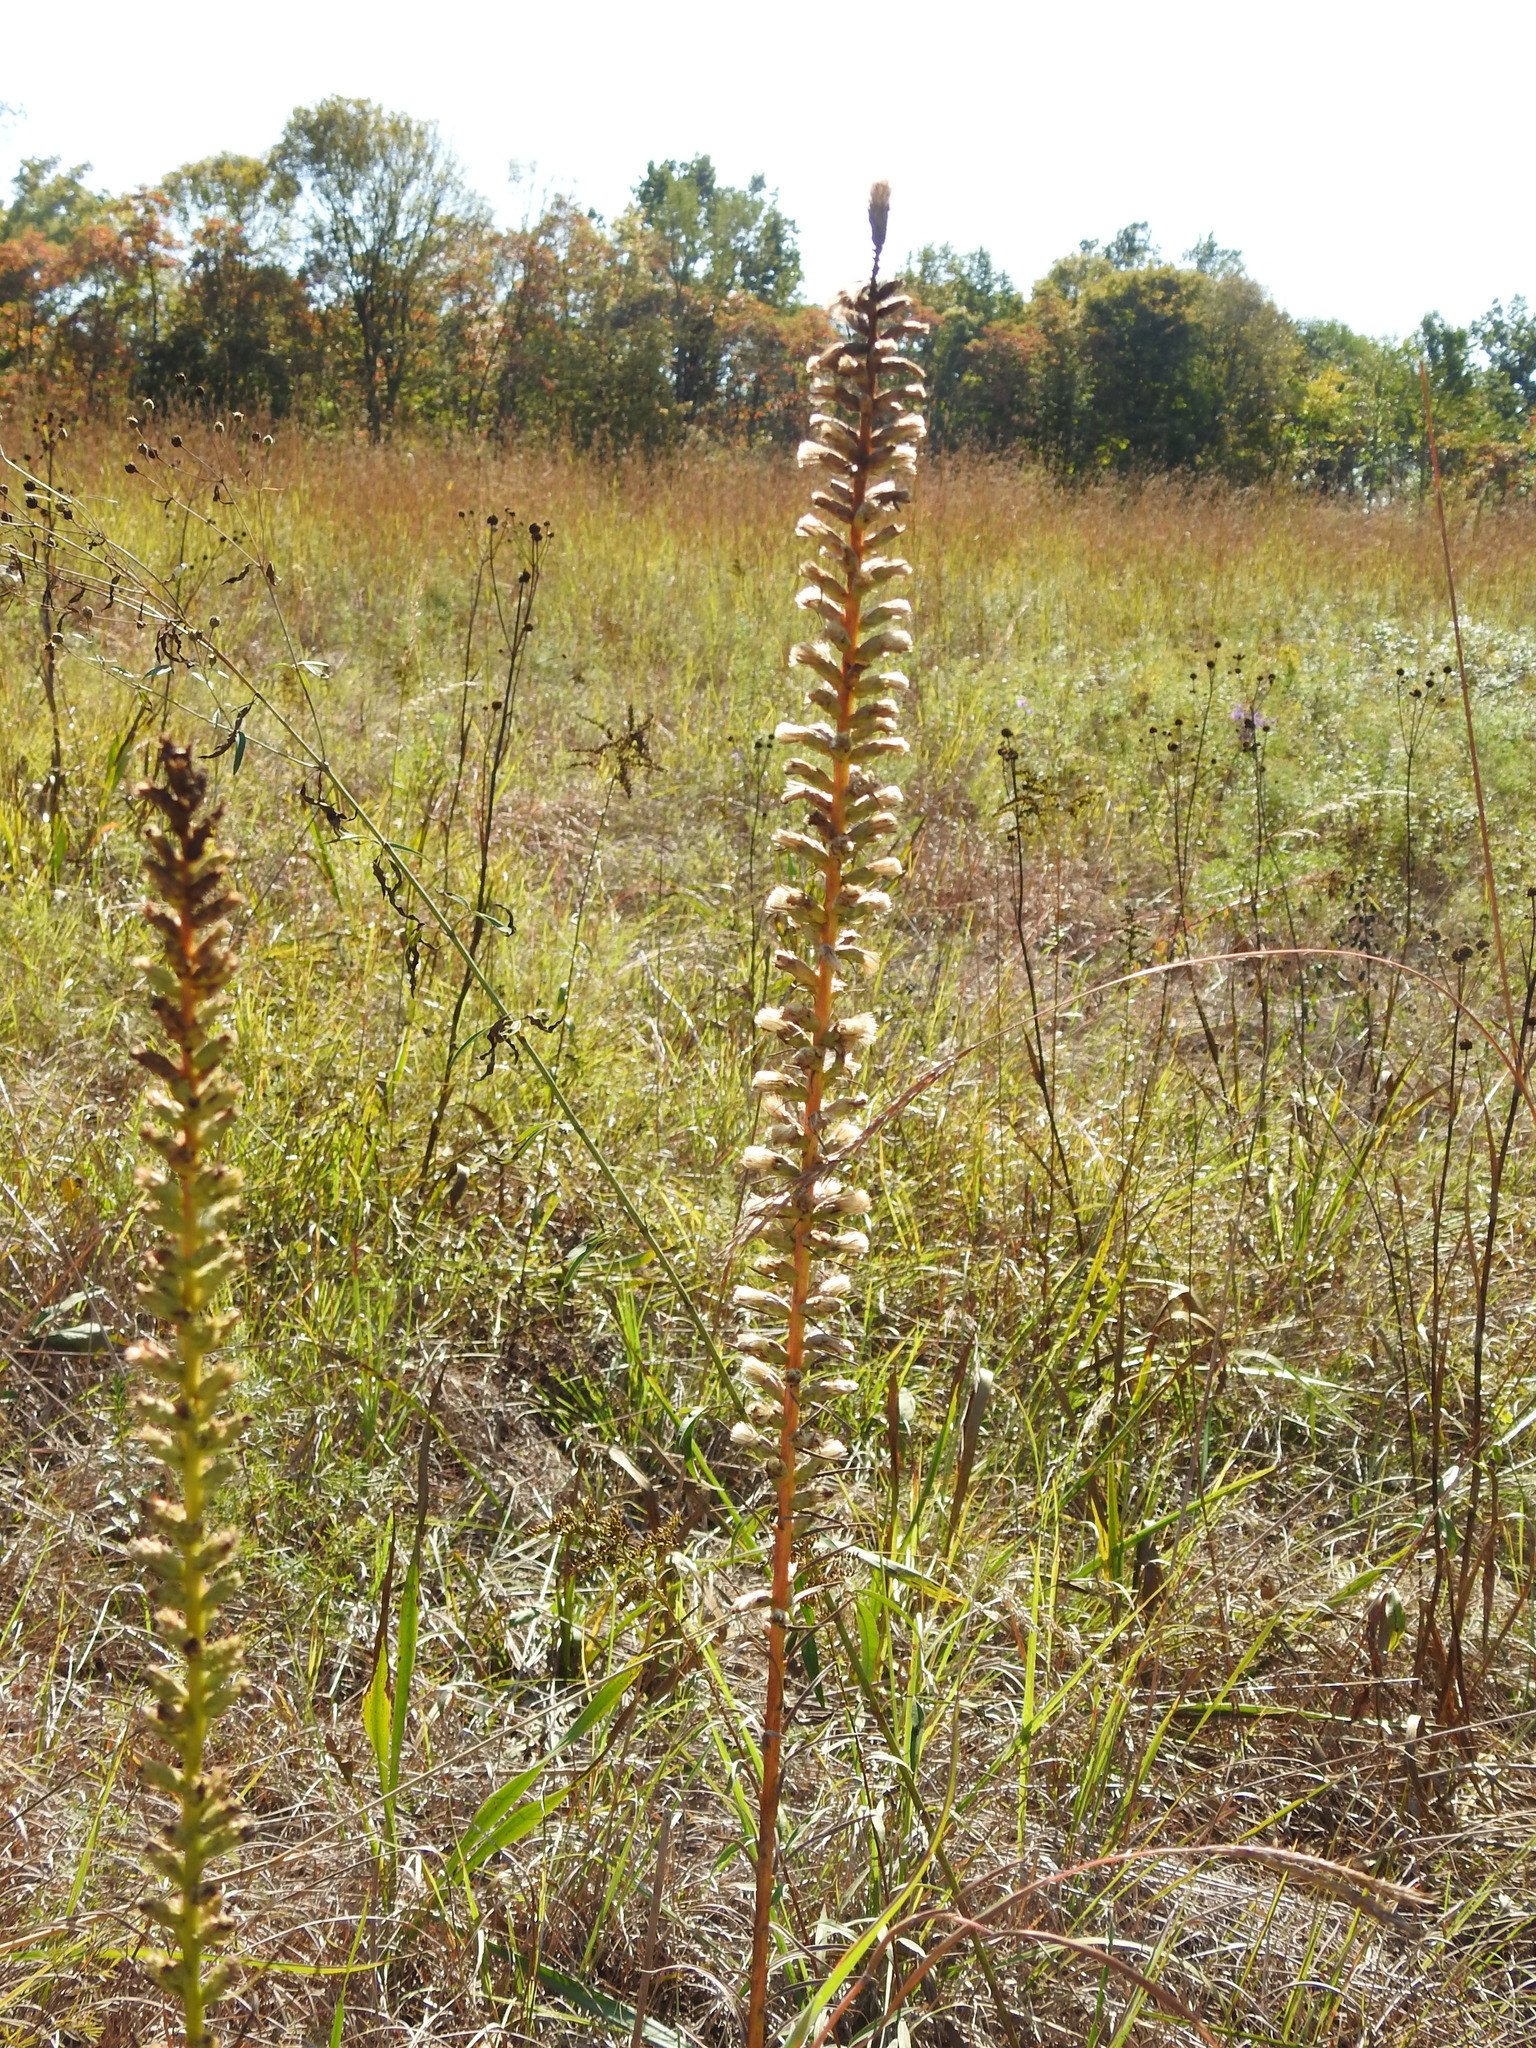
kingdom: Plantae
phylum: Tracheophyta
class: Magnoliopsida
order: Asterales
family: Asteraceae
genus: Liatris
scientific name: Liatris spicata
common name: Florist gayfeather
